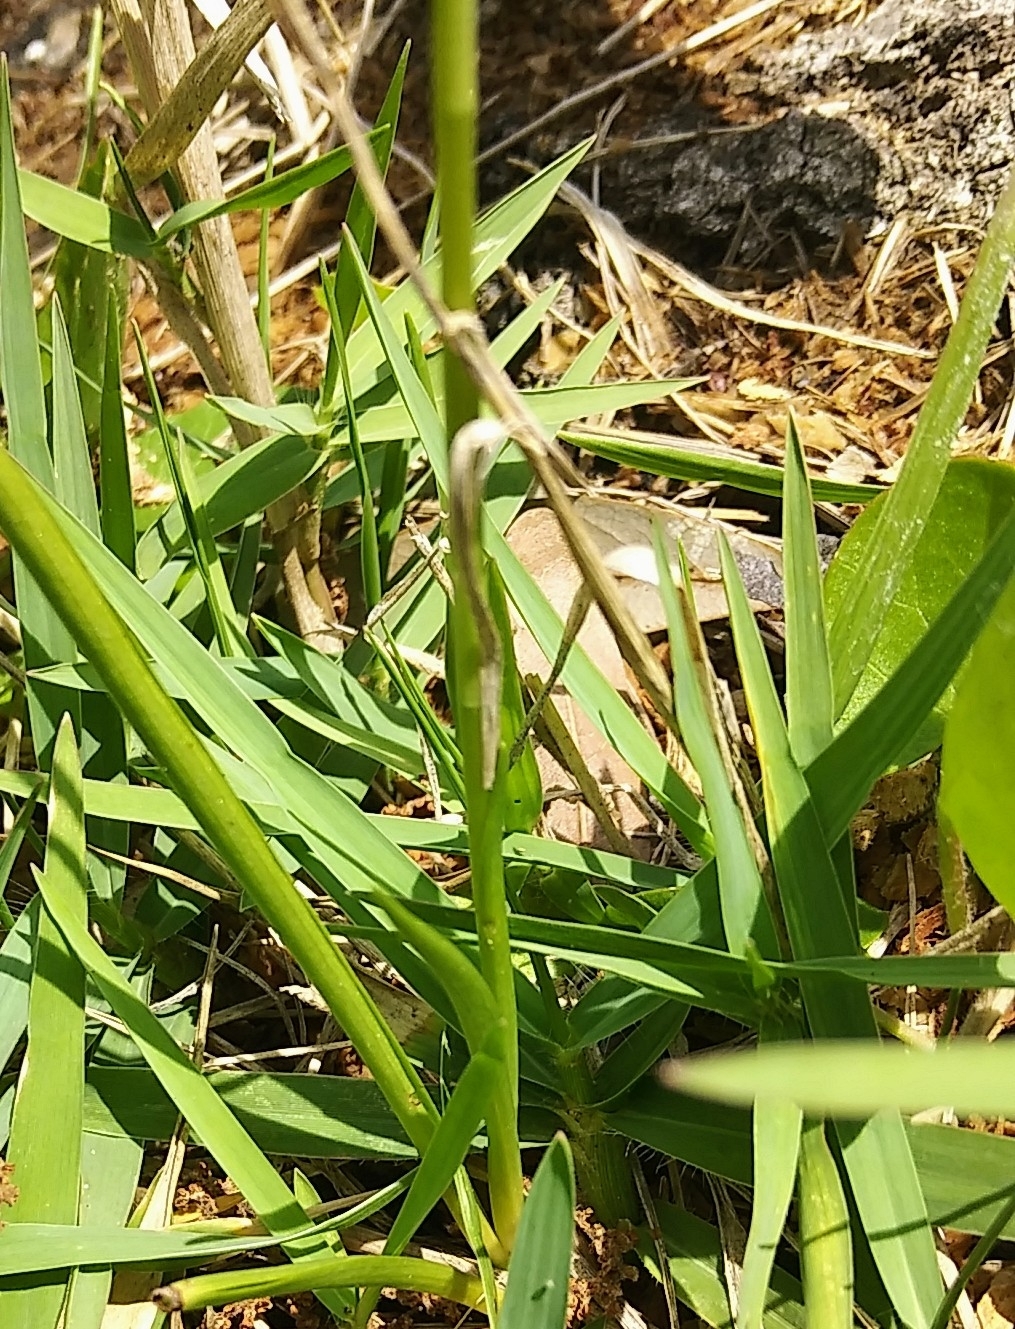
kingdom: Plantae
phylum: Tracheophyta
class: Liliopsida
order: Asparagales
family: Orchidaceae
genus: Spiranthes
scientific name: Spiranthes vernalis
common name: Spring ladies'-tresses
